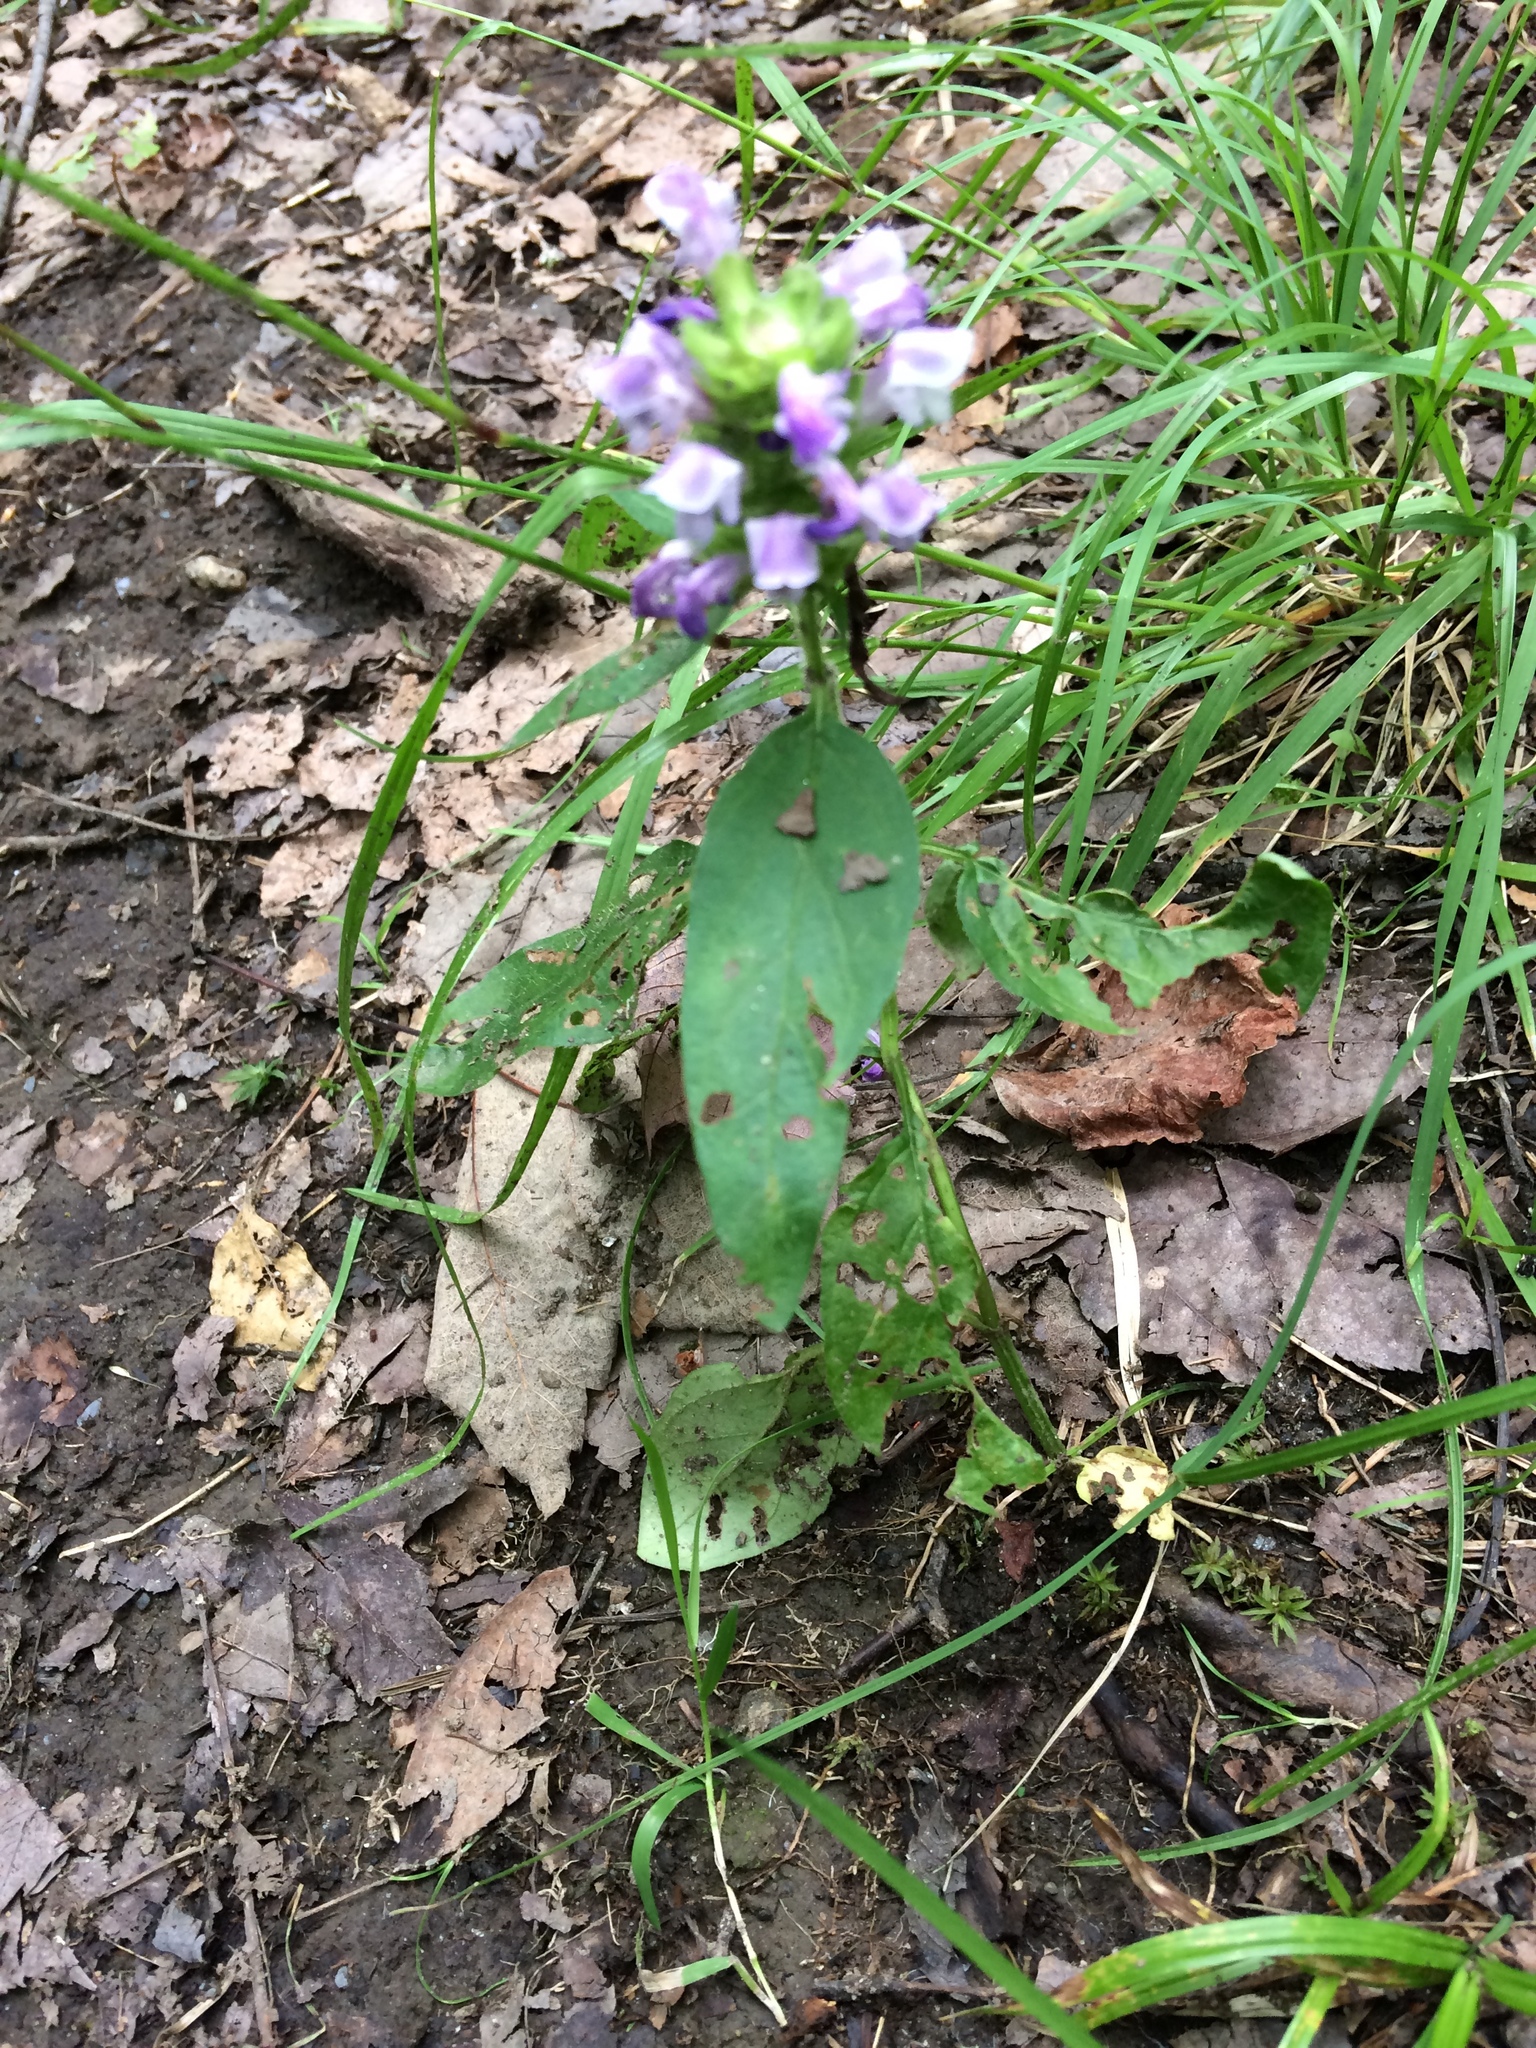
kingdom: Plantae
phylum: Tracheophyta
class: Magnoliopsida
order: Lamiales
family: Lamiaceae
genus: Prunella
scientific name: Prunella vulgaris
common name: Heal-all
